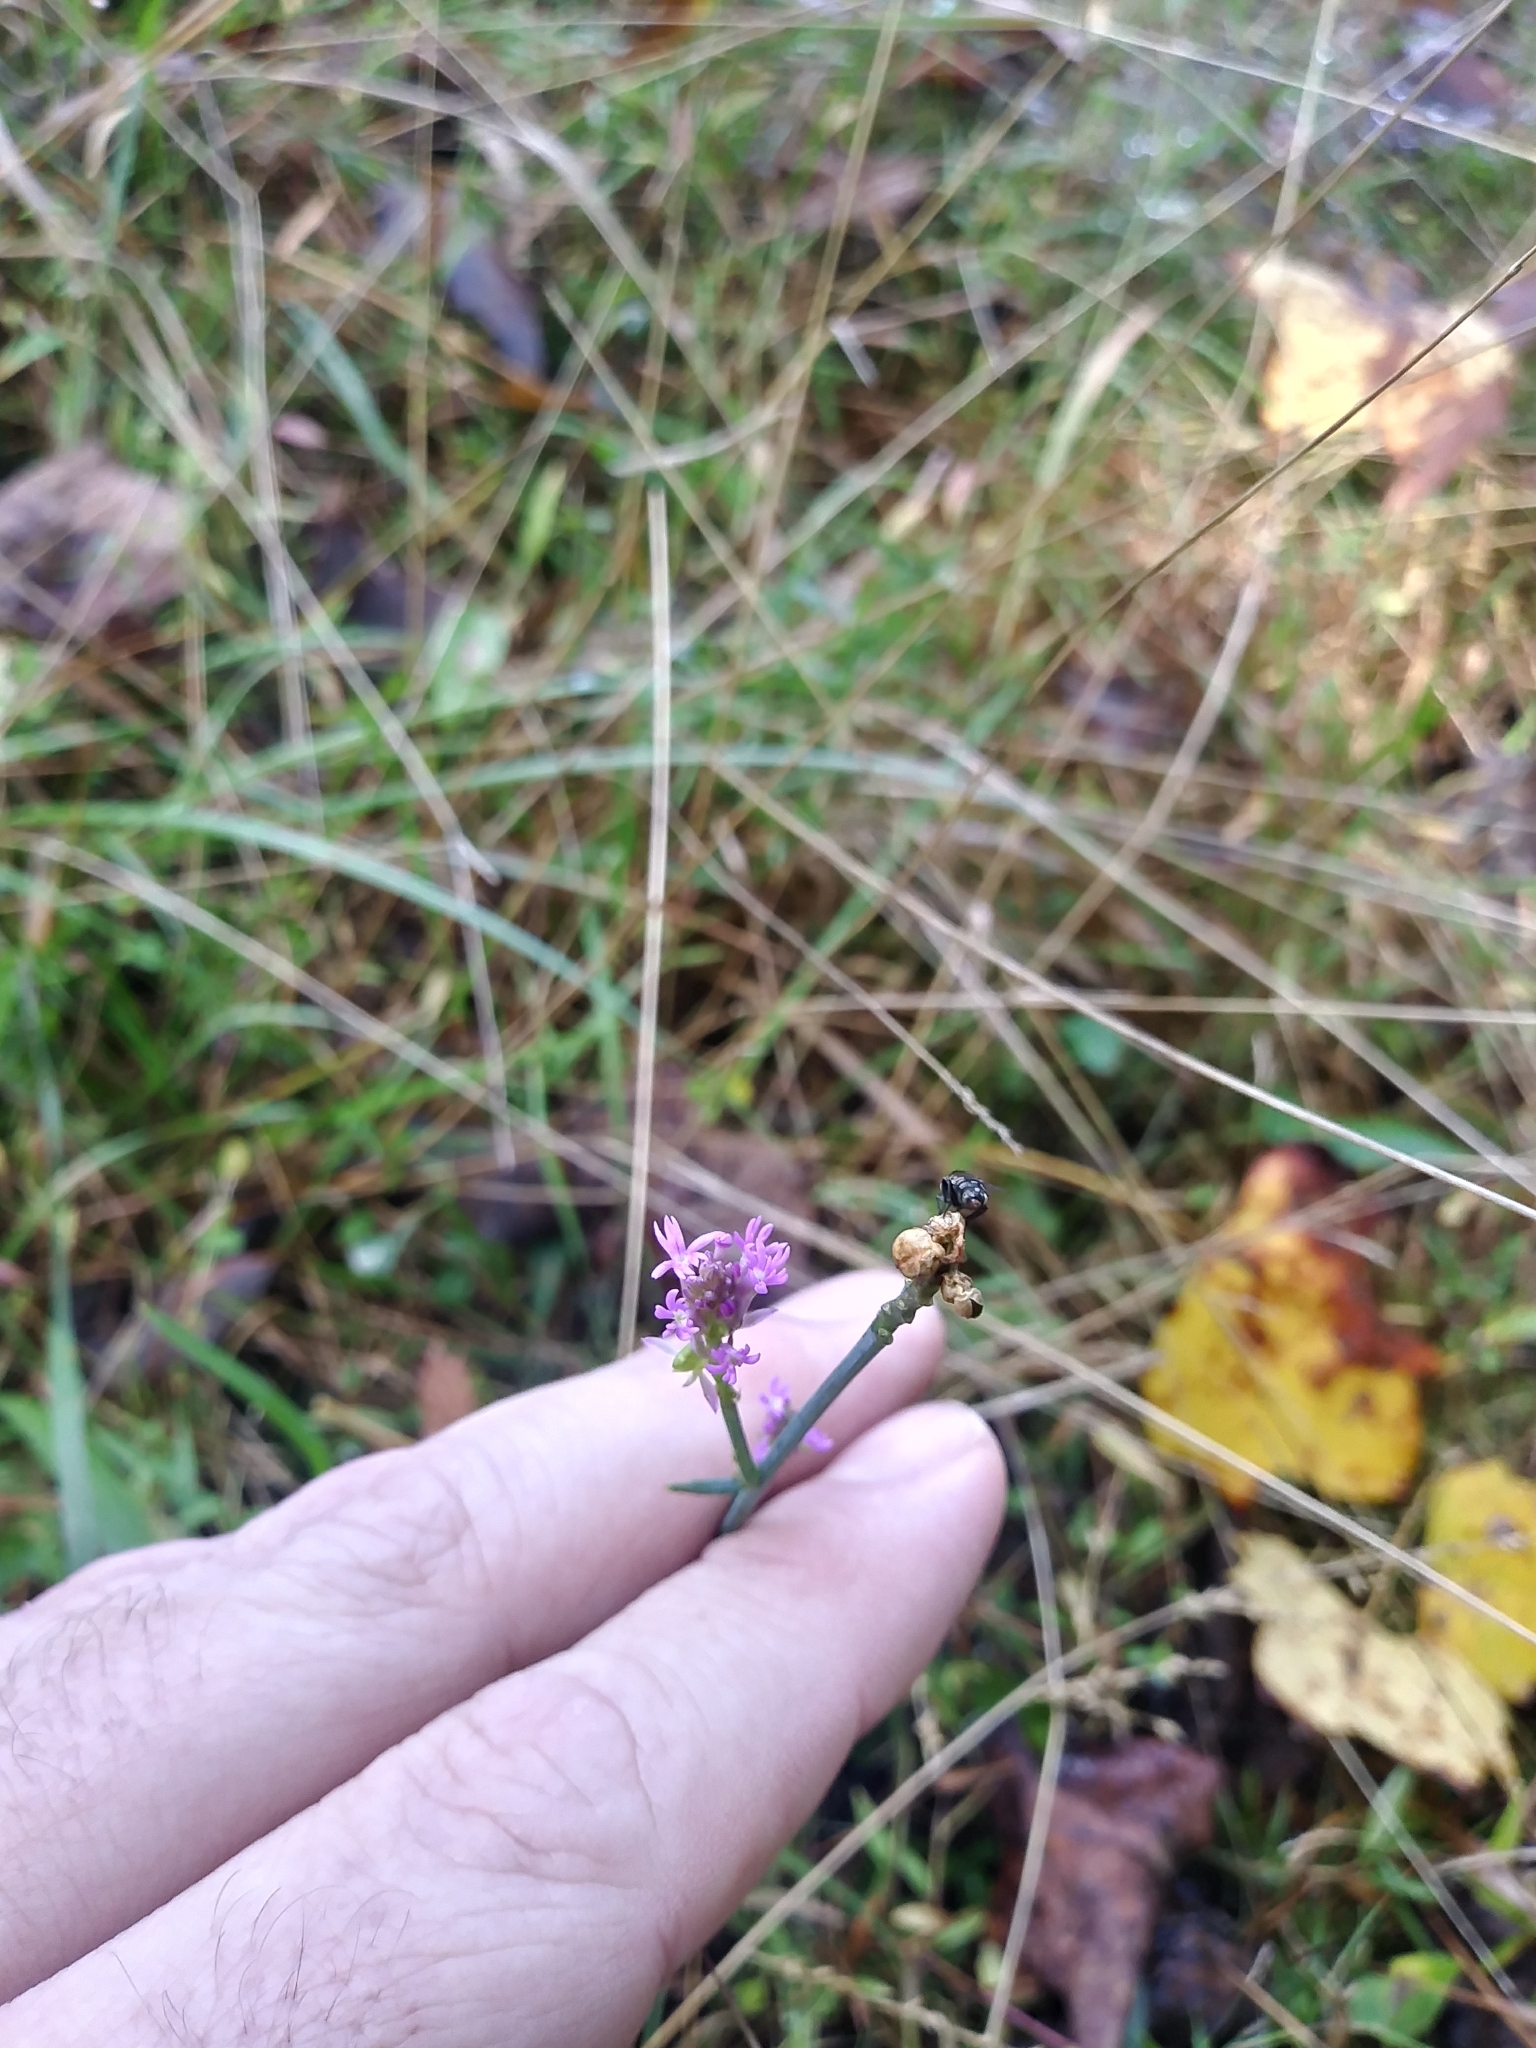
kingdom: Plantae
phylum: Tracheophyta
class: Magnoliopsida
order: Fabales
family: Polygalaceae
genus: Polygala
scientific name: Polygala incarnata
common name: Pink milkwort
